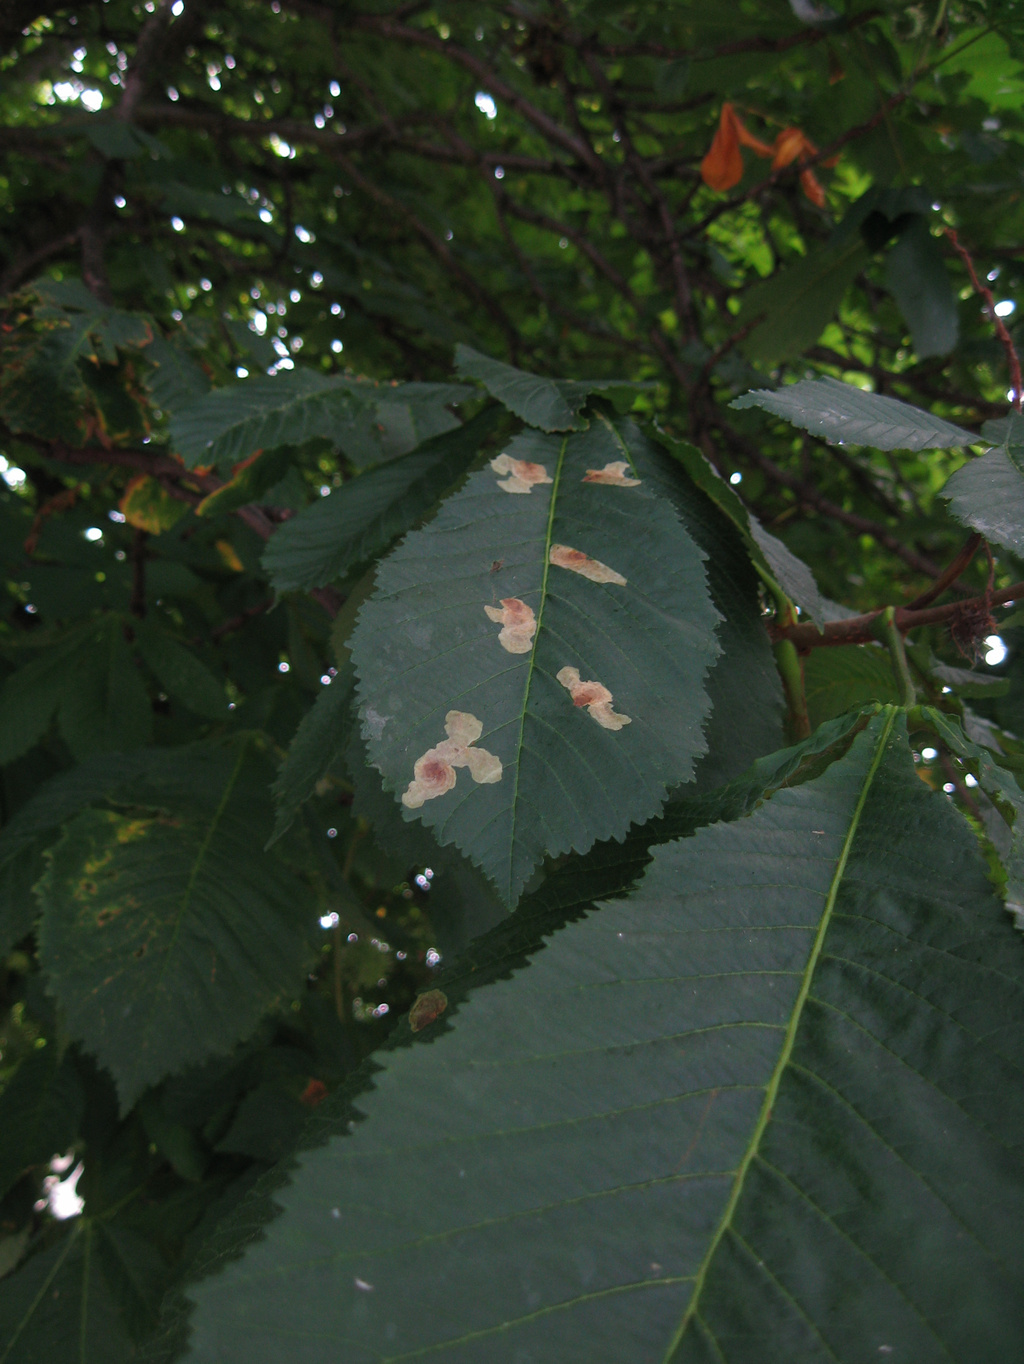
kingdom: Animalia
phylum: Arthropoda
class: Insecta
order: Lepidoptera
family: Gracillariidae
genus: Cameraria
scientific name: Cameraria ohridella
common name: Horse-chestnut leaf-miner
